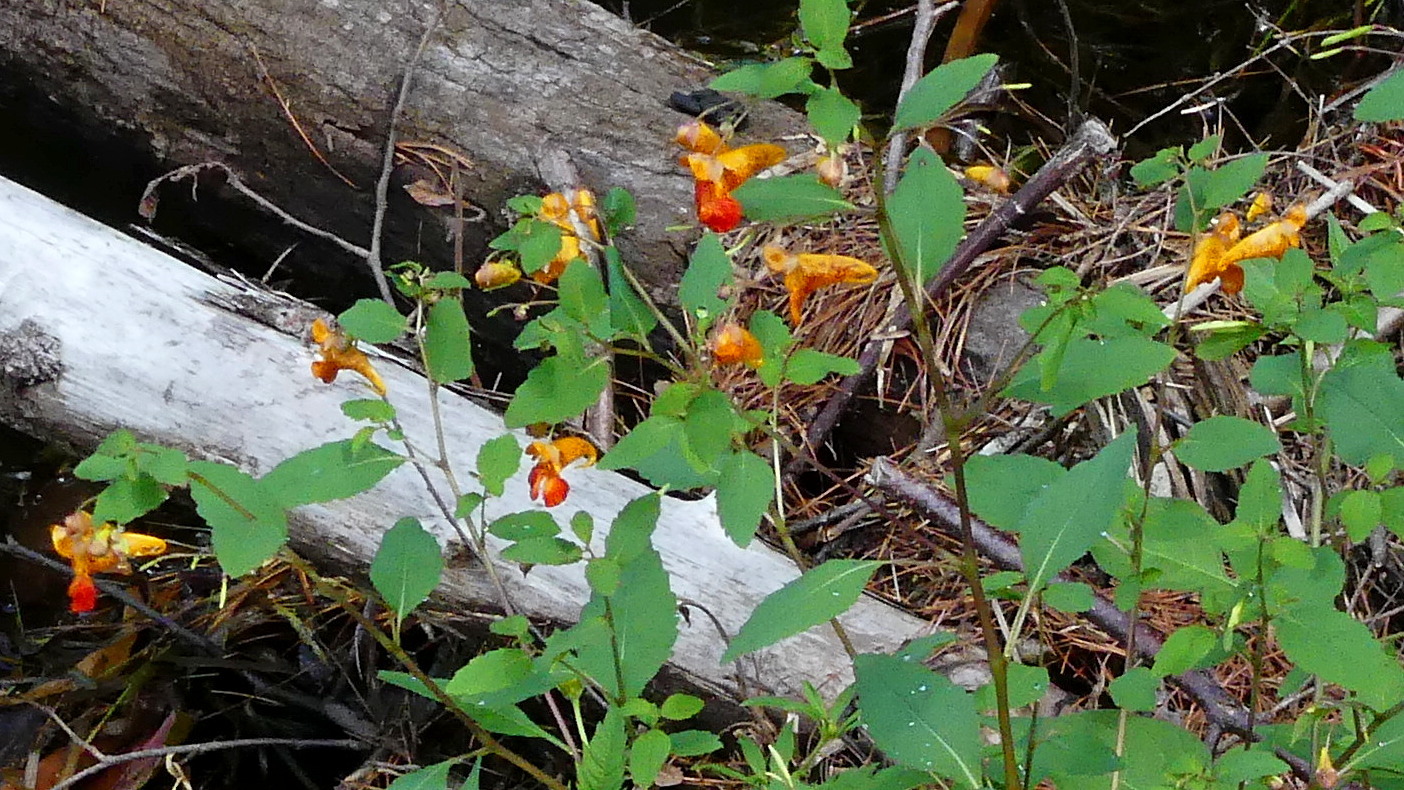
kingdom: Plantae
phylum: Tracheophyta
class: Magnoliopsida
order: Ericales
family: Balsaminaceae
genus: Impatiens
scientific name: Impatiens capensis
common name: Orange balsam
